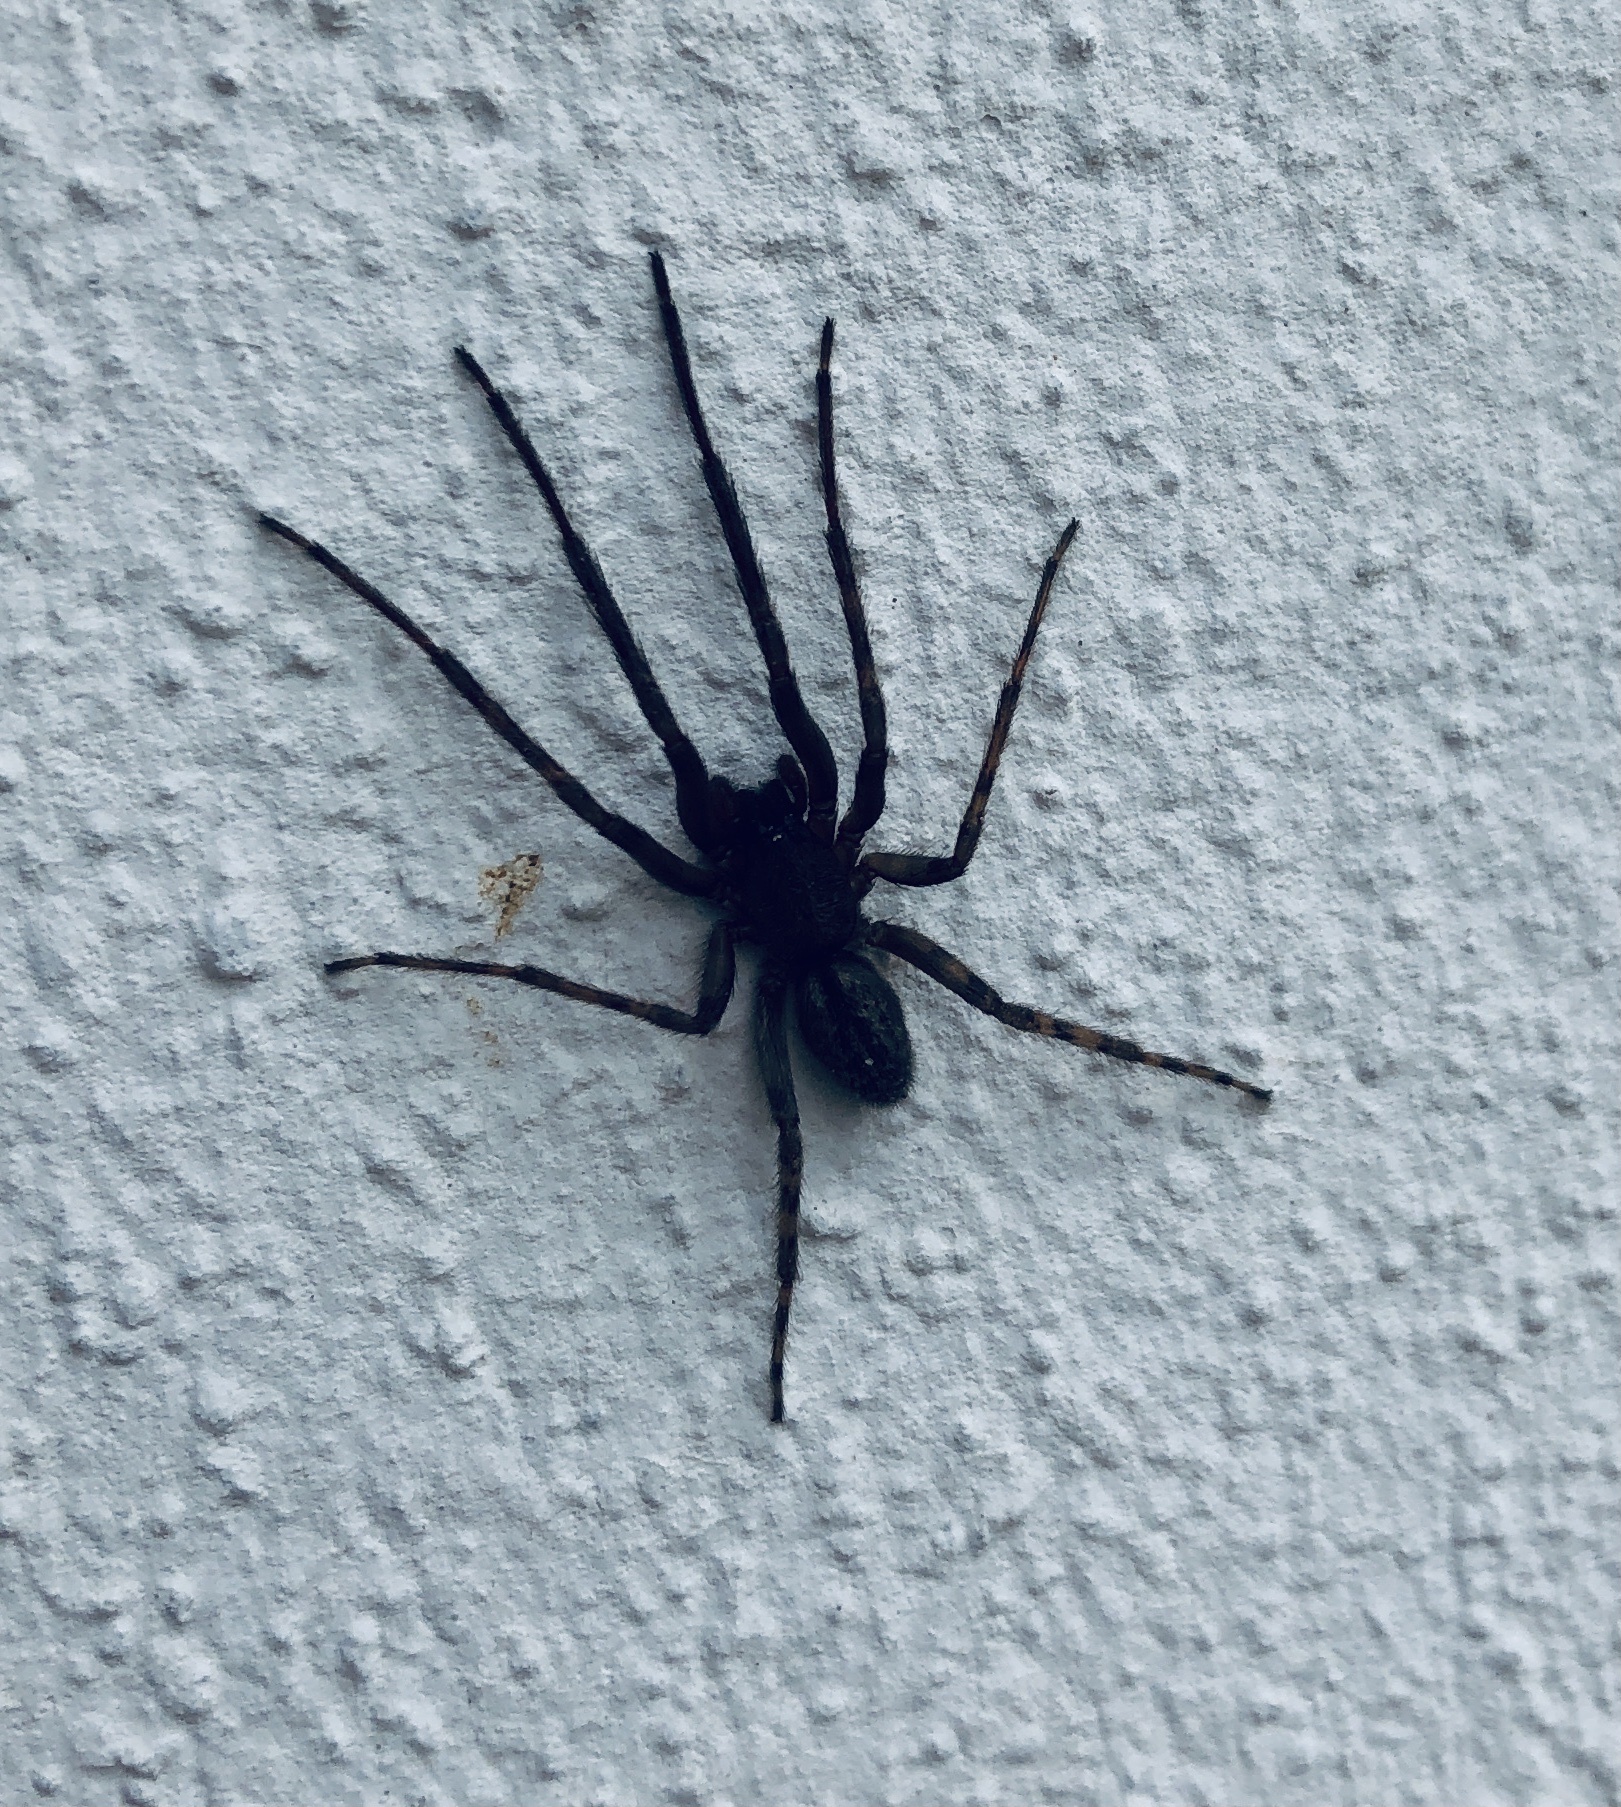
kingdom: Animalia
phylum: Arthropoda
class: Arachnida
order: Araneae
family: Segestriidae
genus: Segestria
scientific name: Segestria florentina
